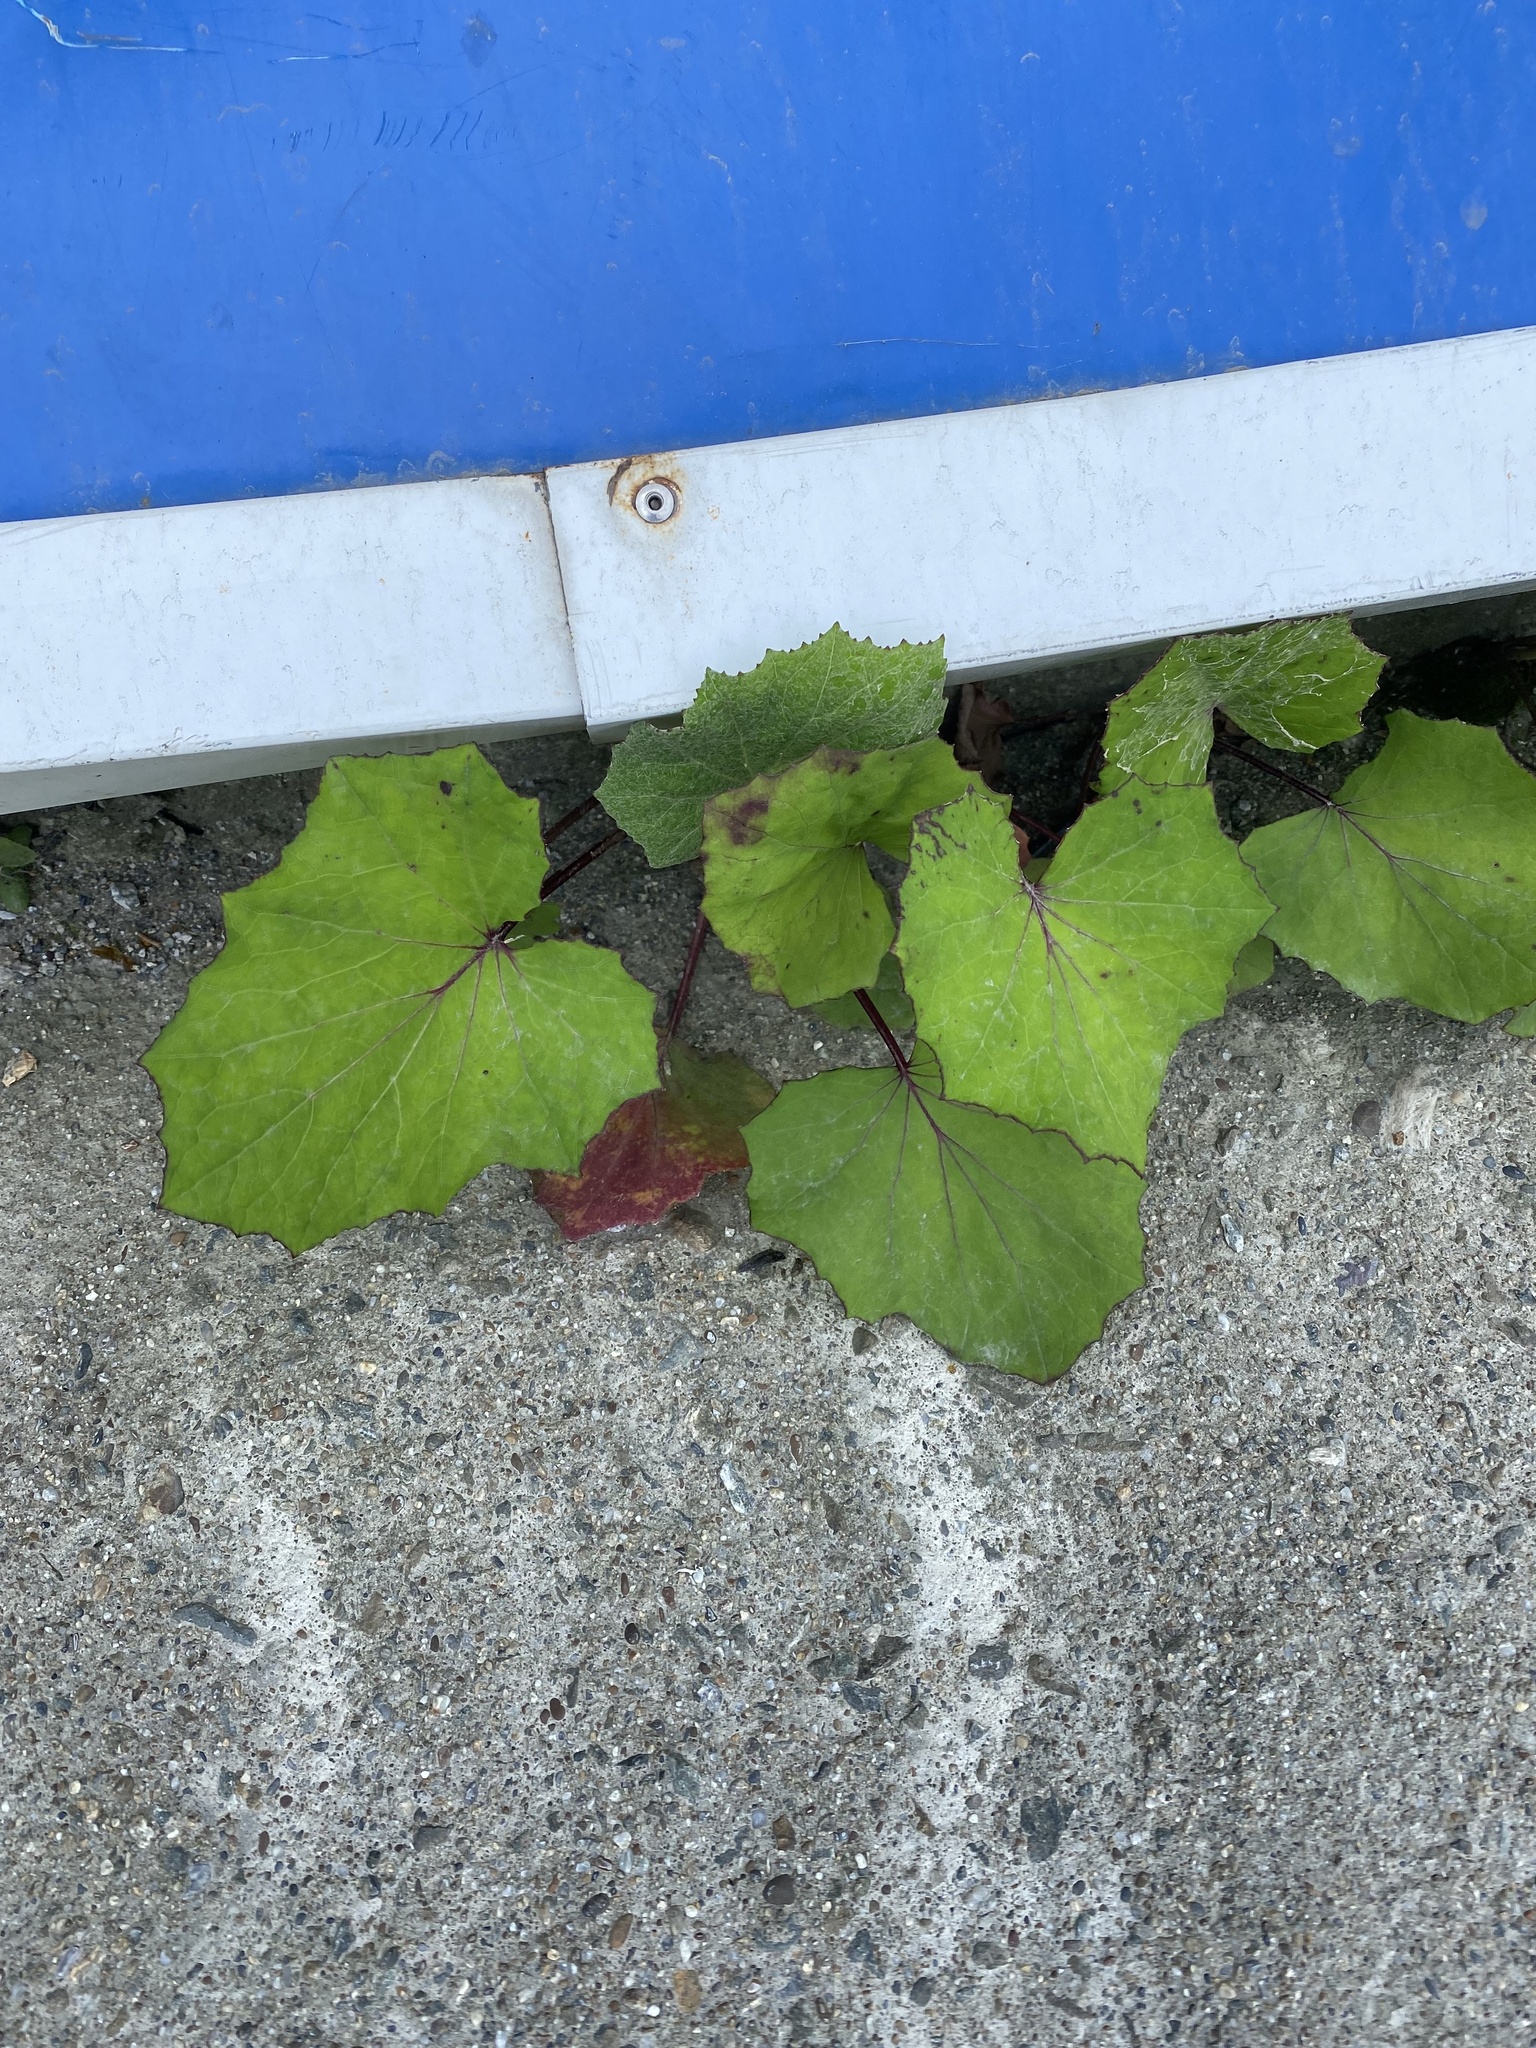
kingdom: Plantae
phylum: Tracheophyta
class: Magnoliopsida
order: Asterales
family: Asteraceae
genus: Tussilago
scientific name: Tussilago farfara
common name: Coltsfoot
